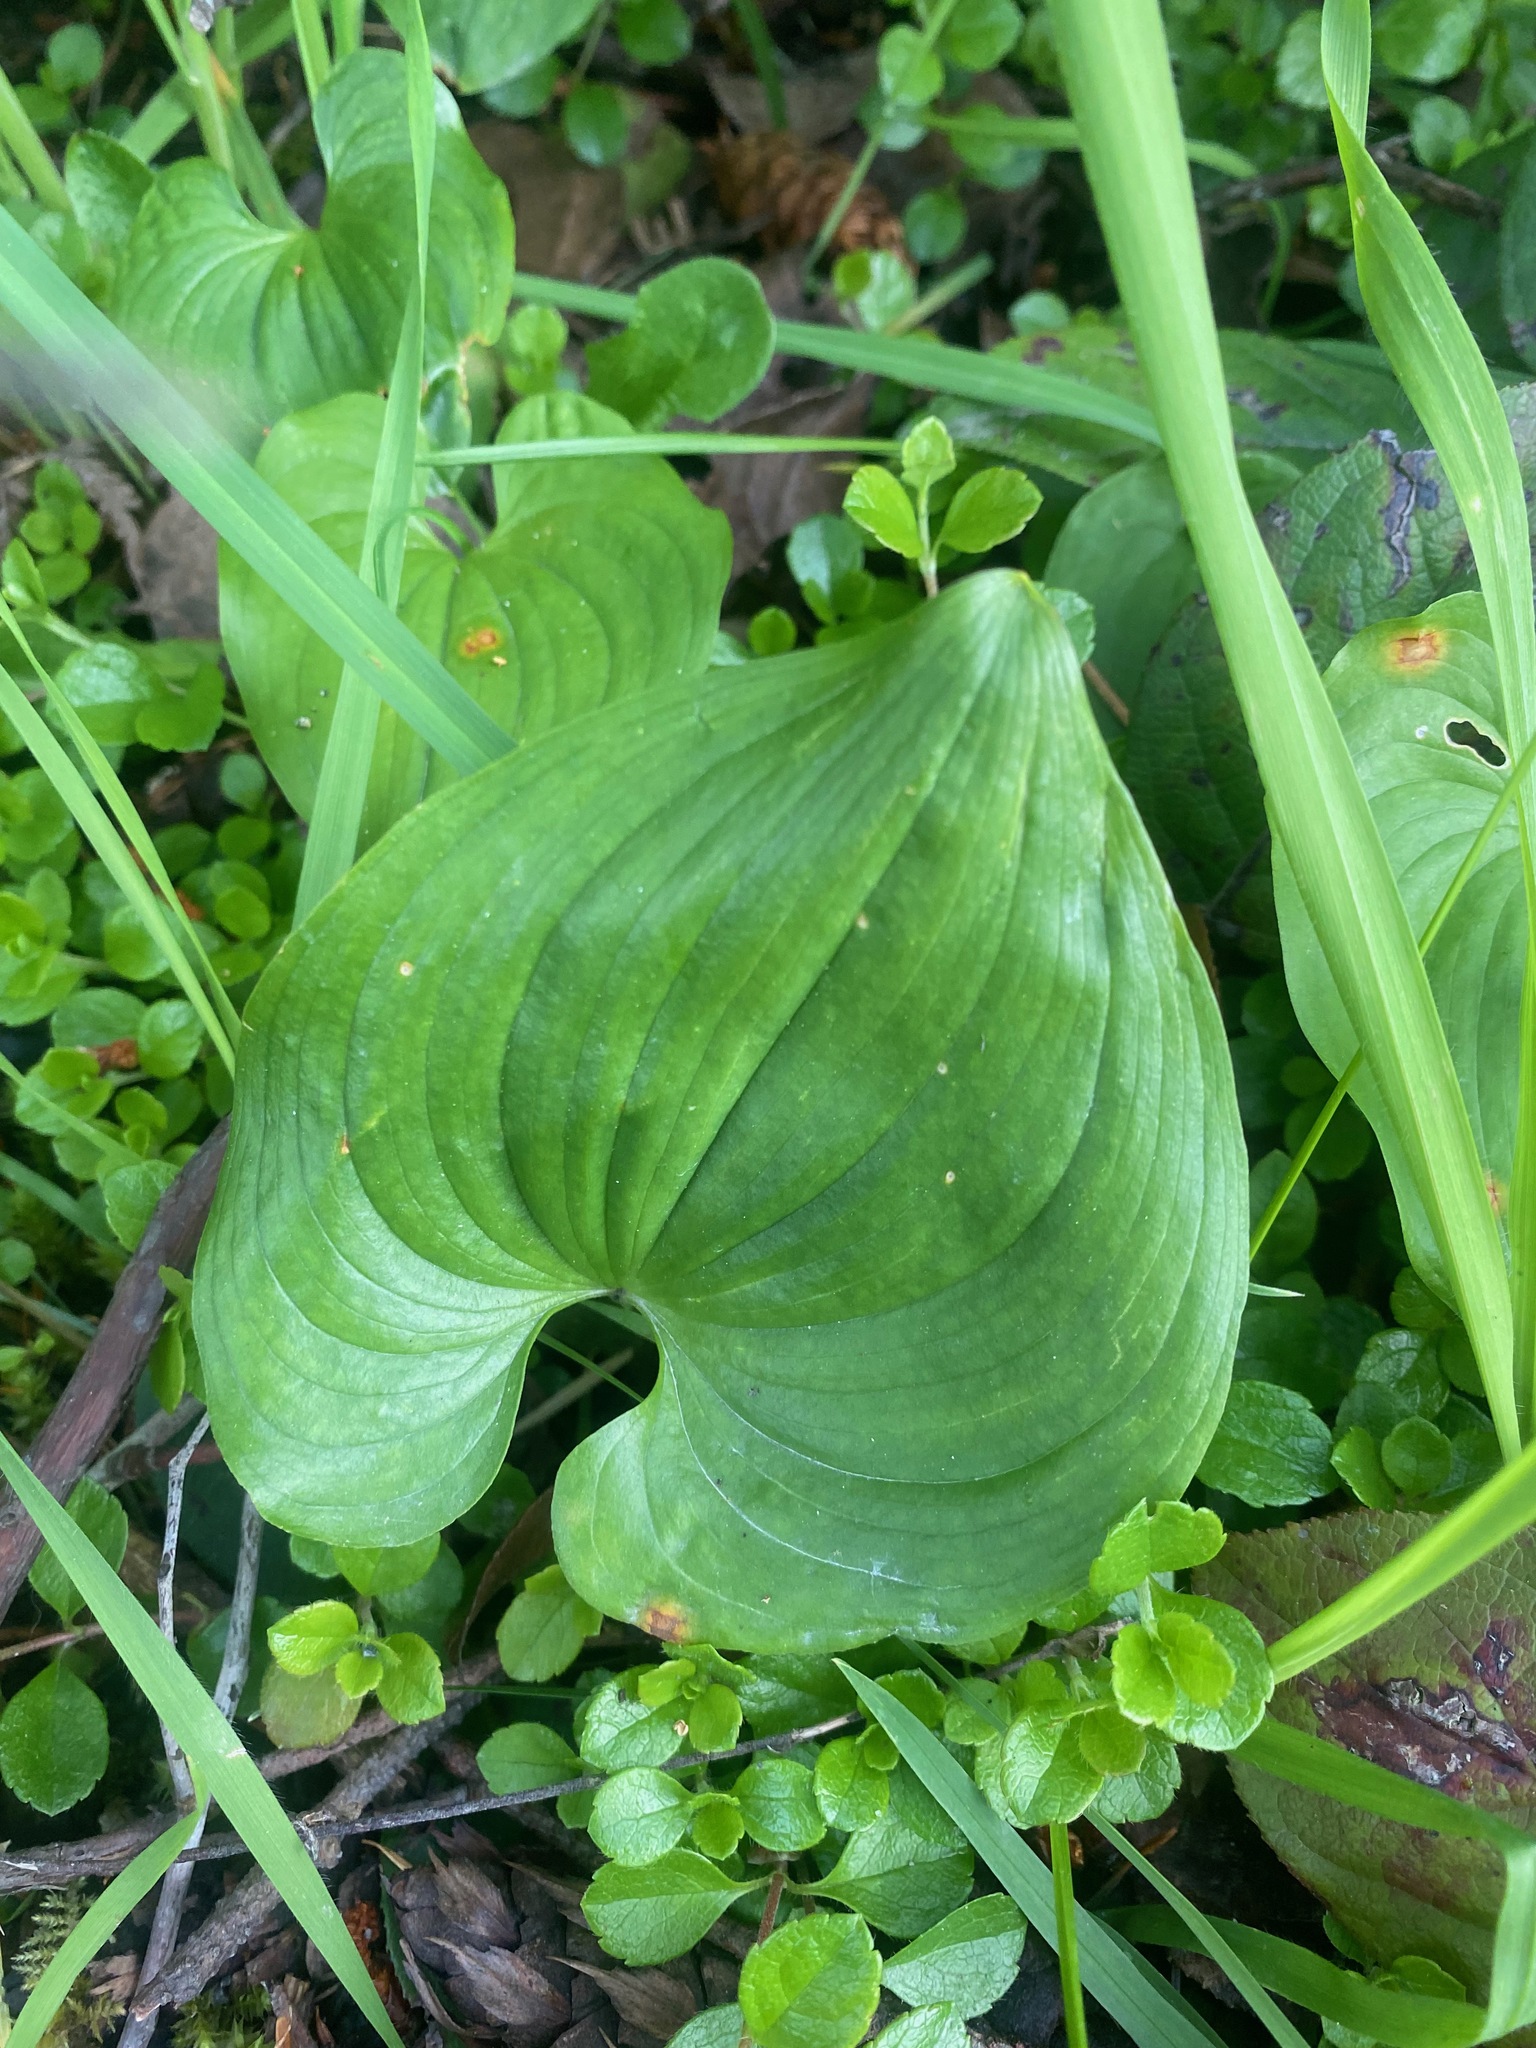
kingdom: Plantae
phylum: Tracheophyta
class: Liliopsida
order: Asparagales
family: Asparagaceae
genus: Maianthemum
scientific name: Maianthemum dilatatum
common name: False lily-of-the-valley
